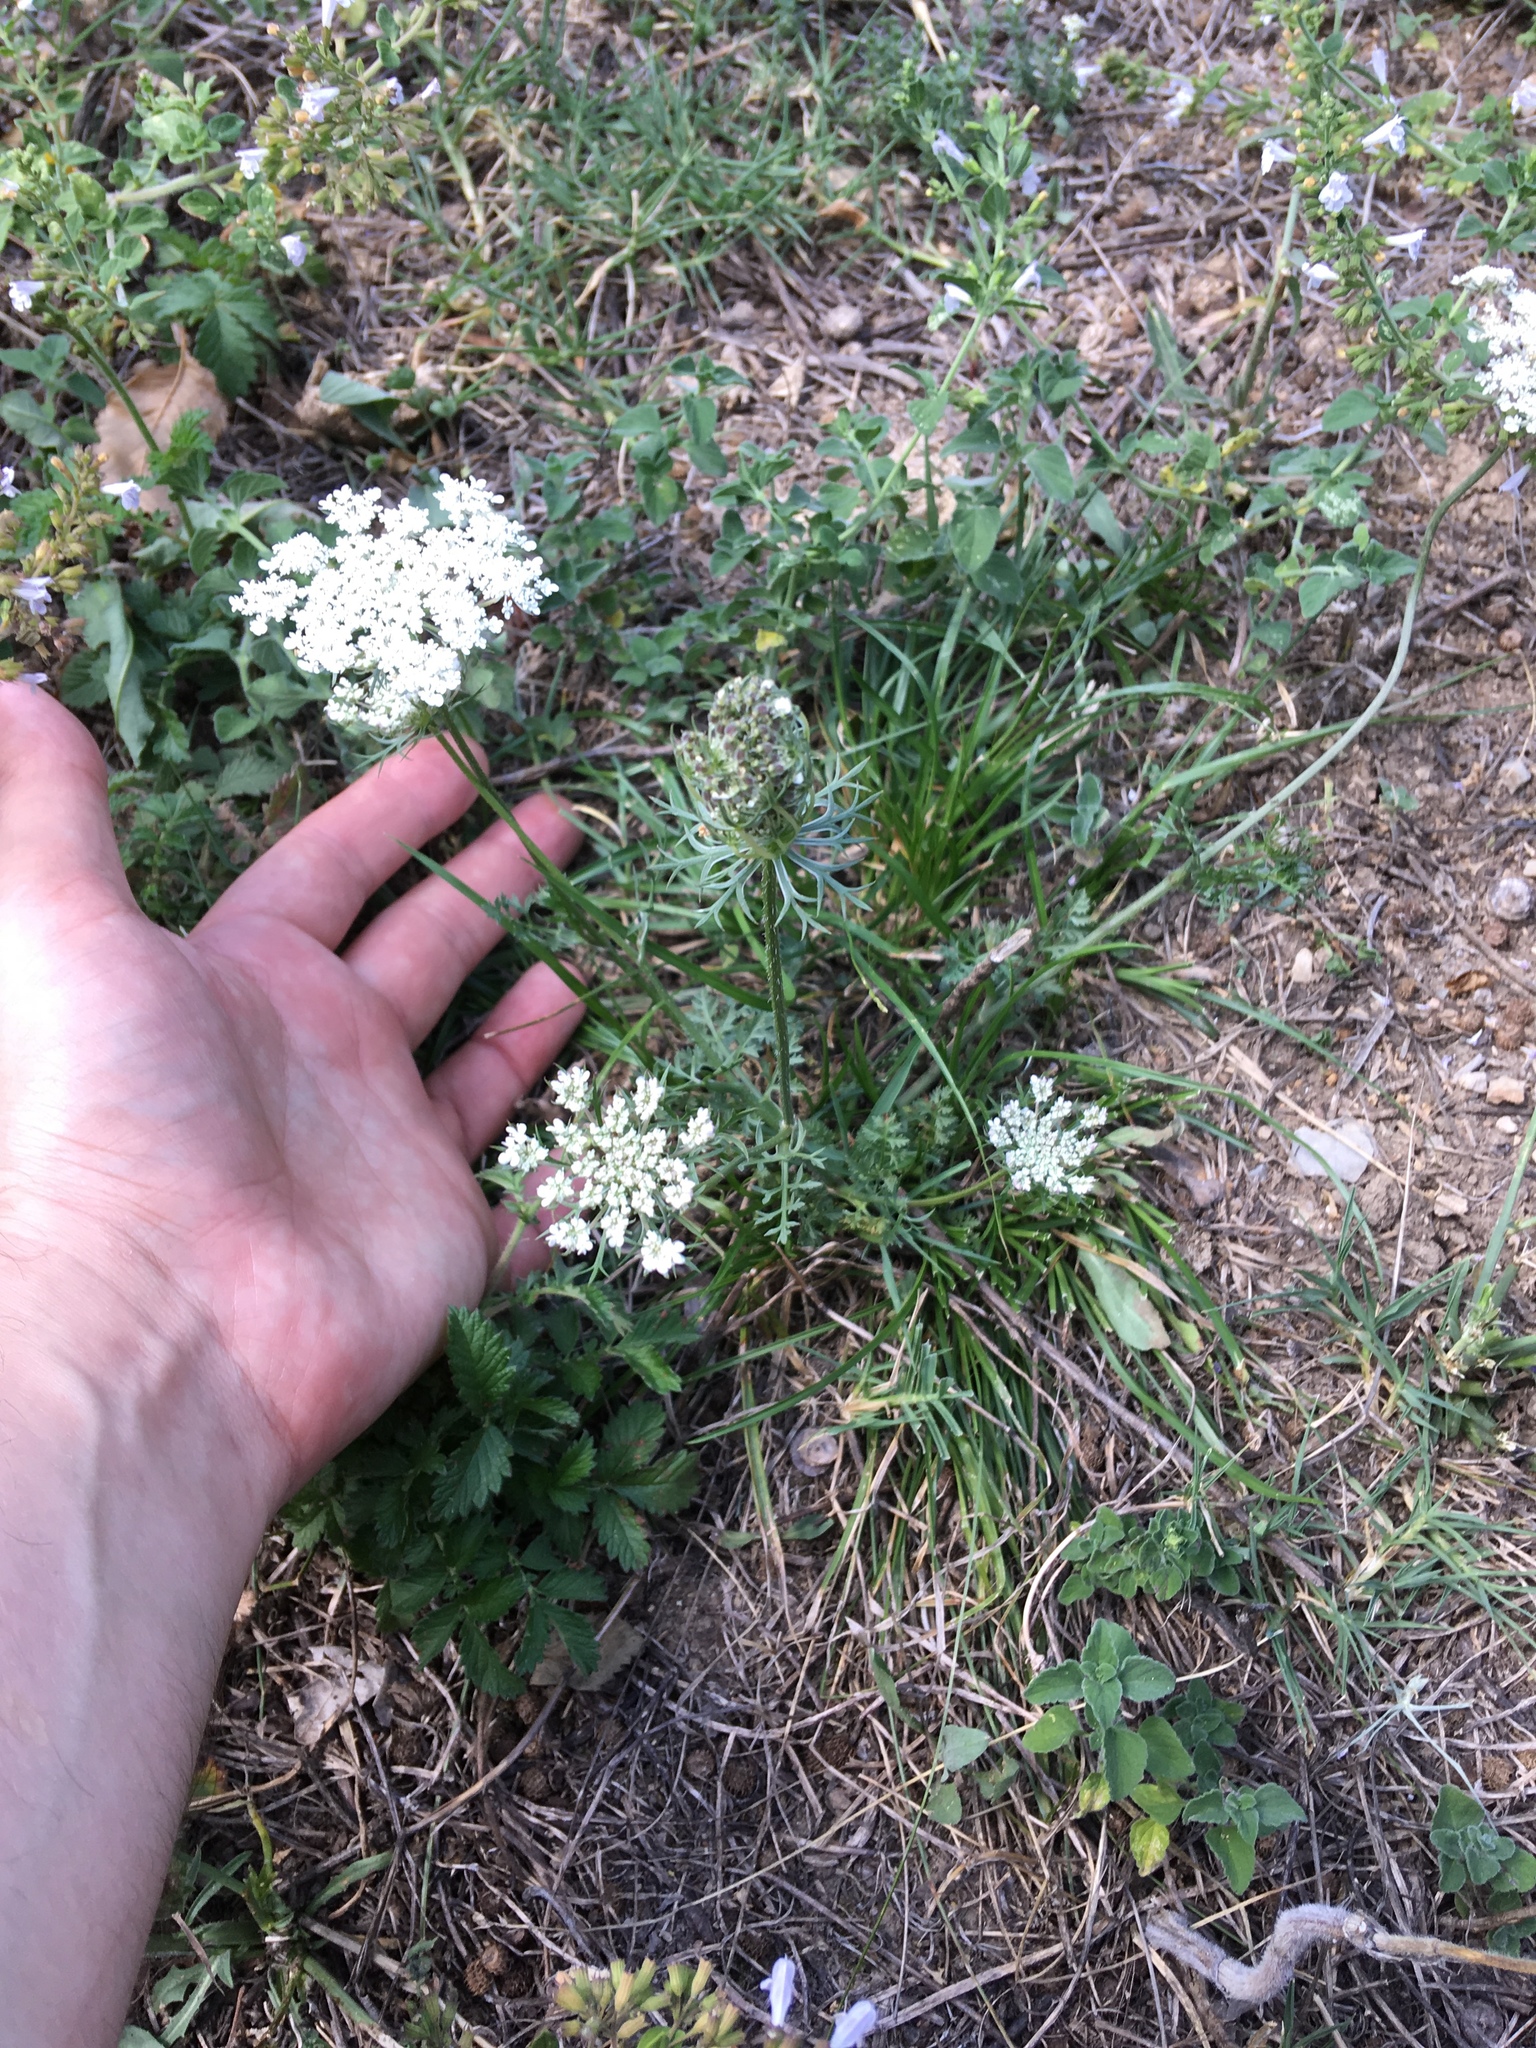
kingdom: Plantae
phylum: Tracheophyta
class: Magnoliopsida
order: Apiales
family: Apiaceae
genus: Daucus
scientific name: Daucus carota
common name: Wild carrot
